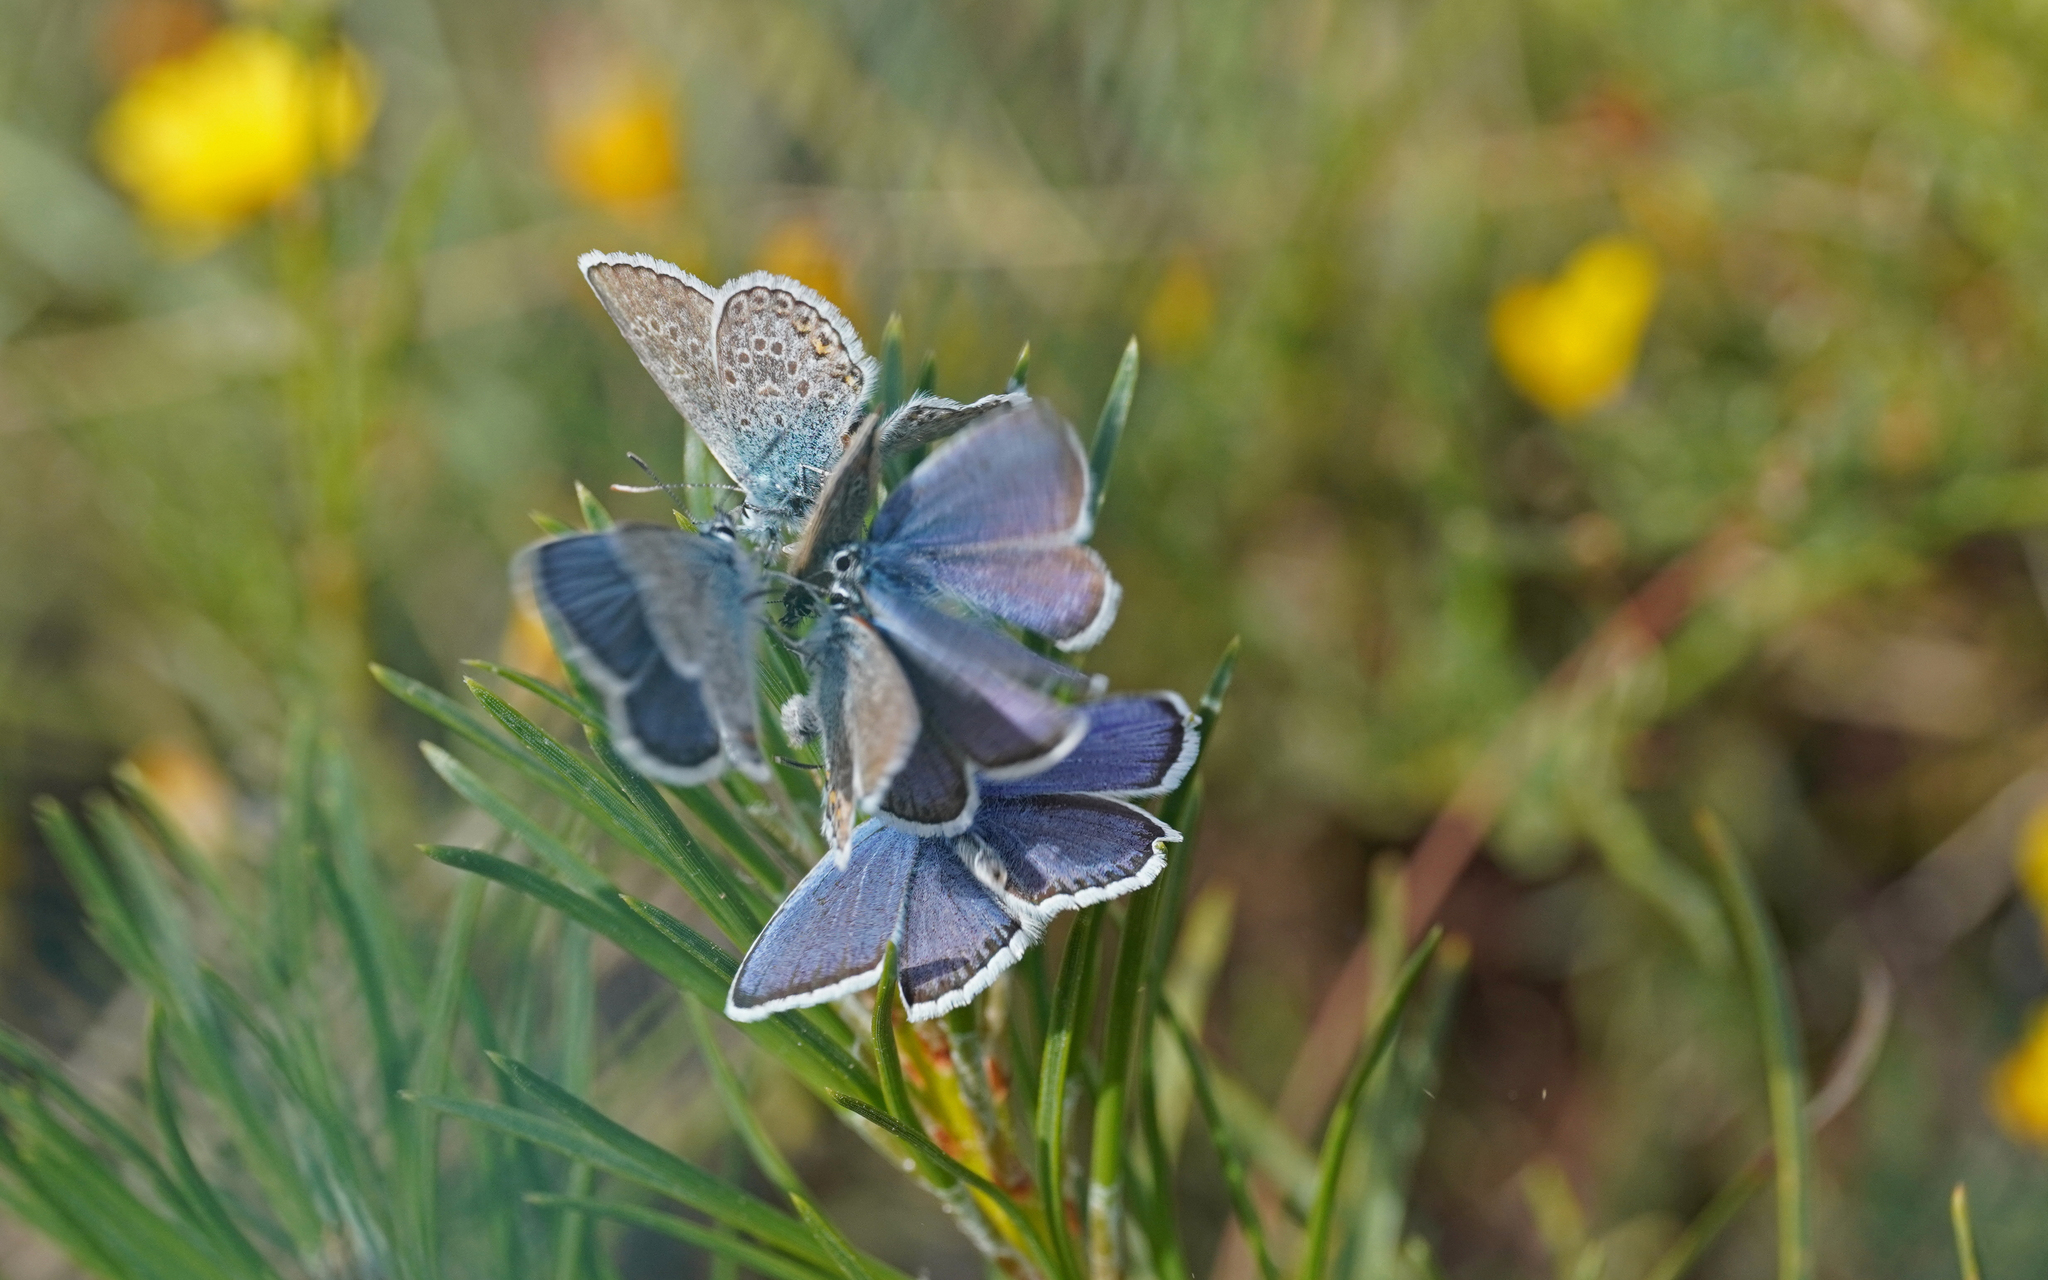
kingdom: Animalia
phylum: Arthropoda
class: Insecta
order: Lepidoptera
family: Lycaenidae
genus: Plebejus
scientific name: Plebejus argus
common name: Silver-studded blue
